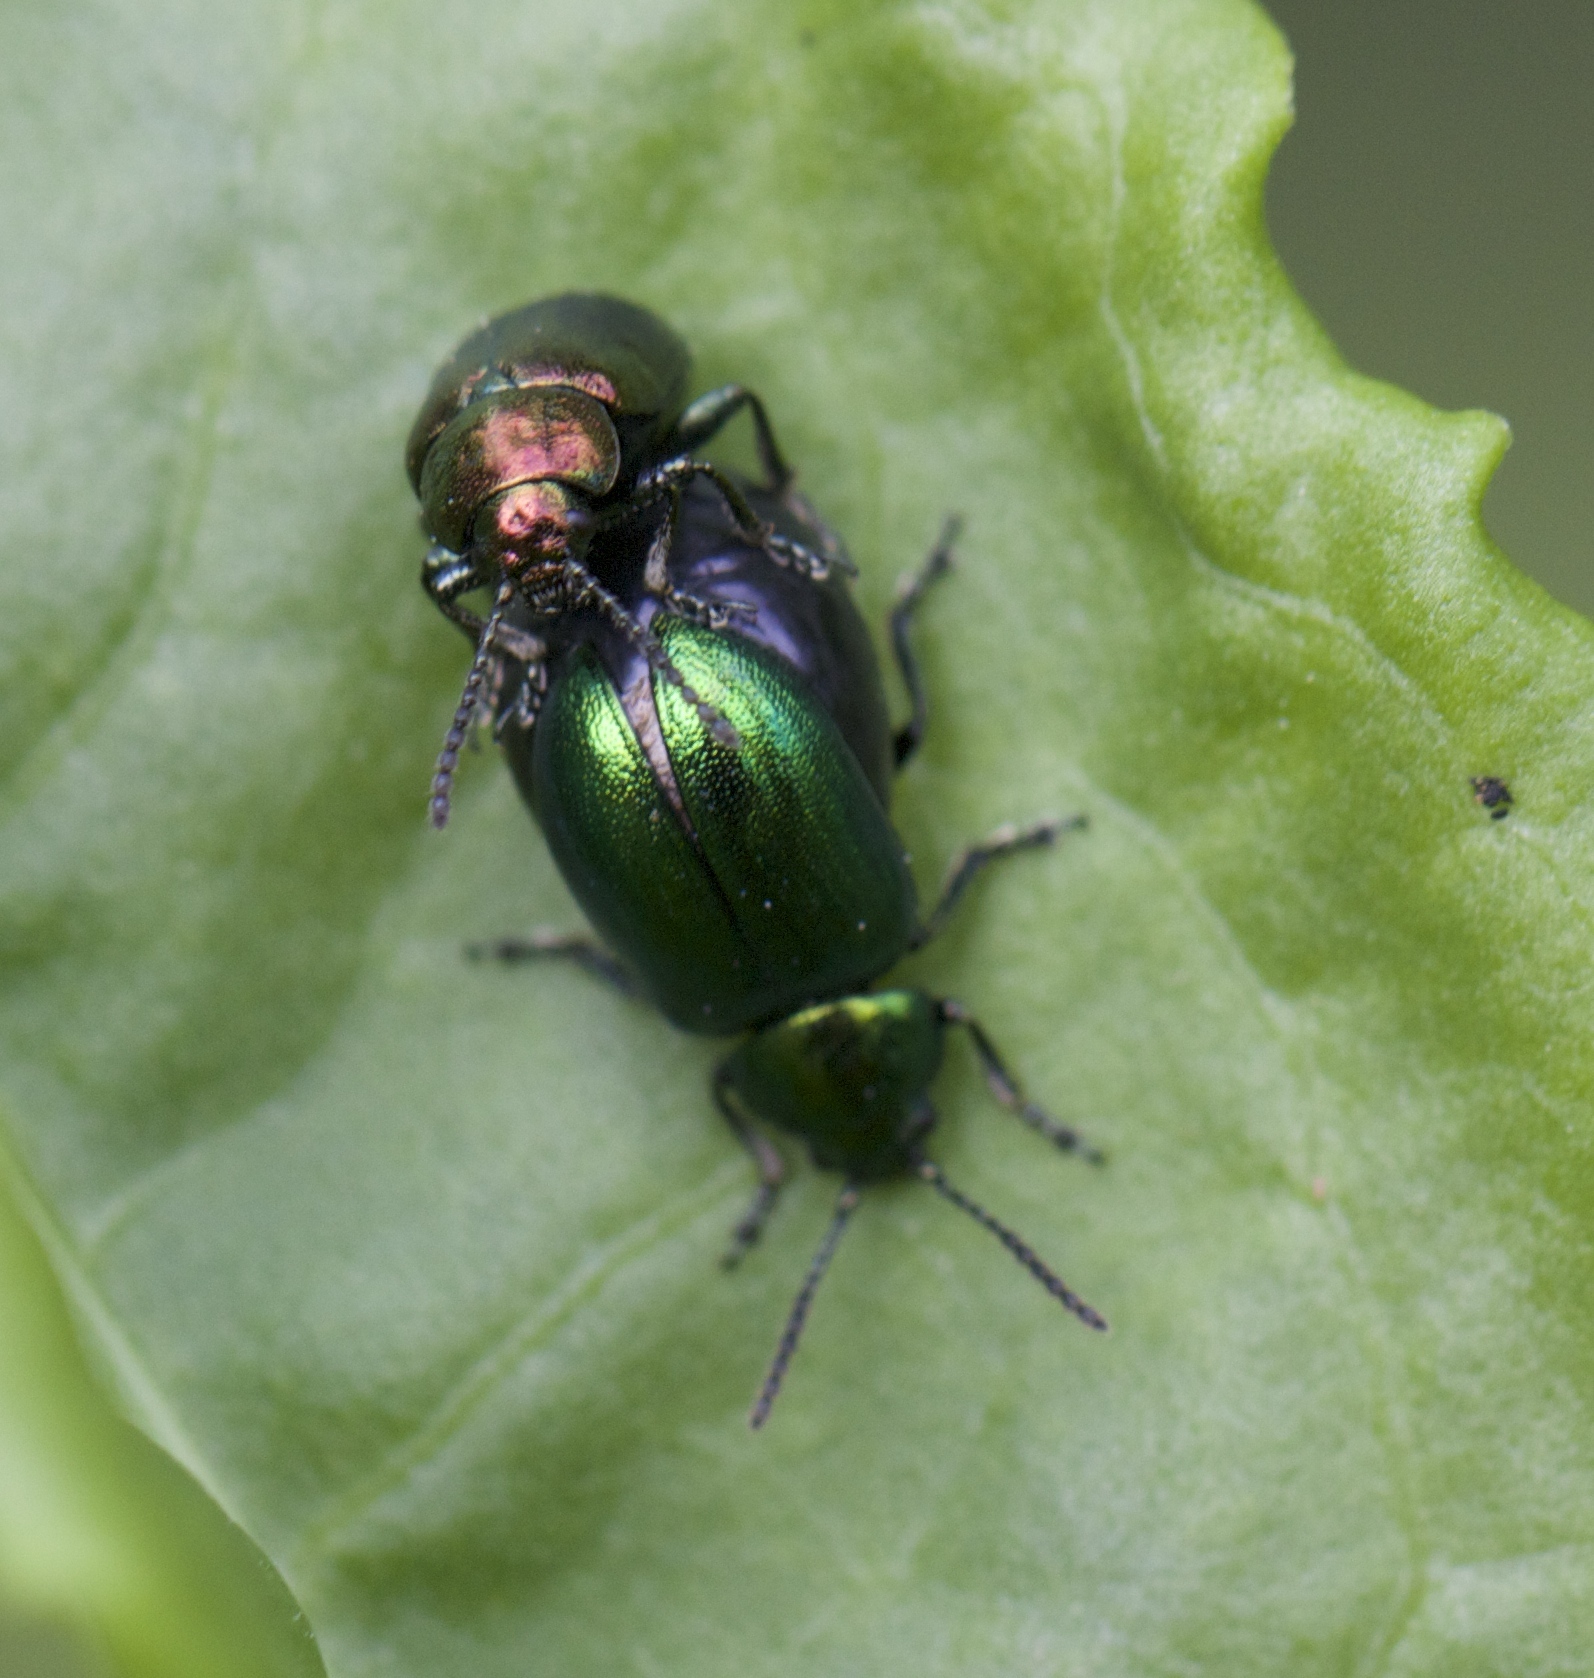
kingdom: Animalia
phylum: Arthropoda
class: Insecta
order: Coleoptera
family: Chrysomelidae
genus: Gastrophysa
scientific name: Gastrophysa cyanea
